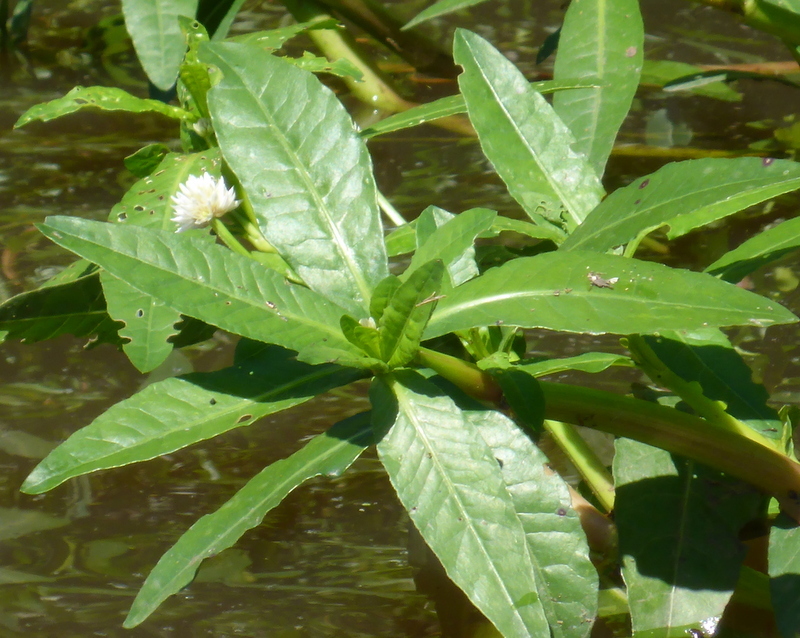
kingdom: Plantae
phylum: Tracheophyta
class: Magnoliopsida
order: Caryophyllales
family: Amaranthaceae
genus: Alternanthera
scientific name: Alternanthera philoxeroides
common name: Alligatorweed
